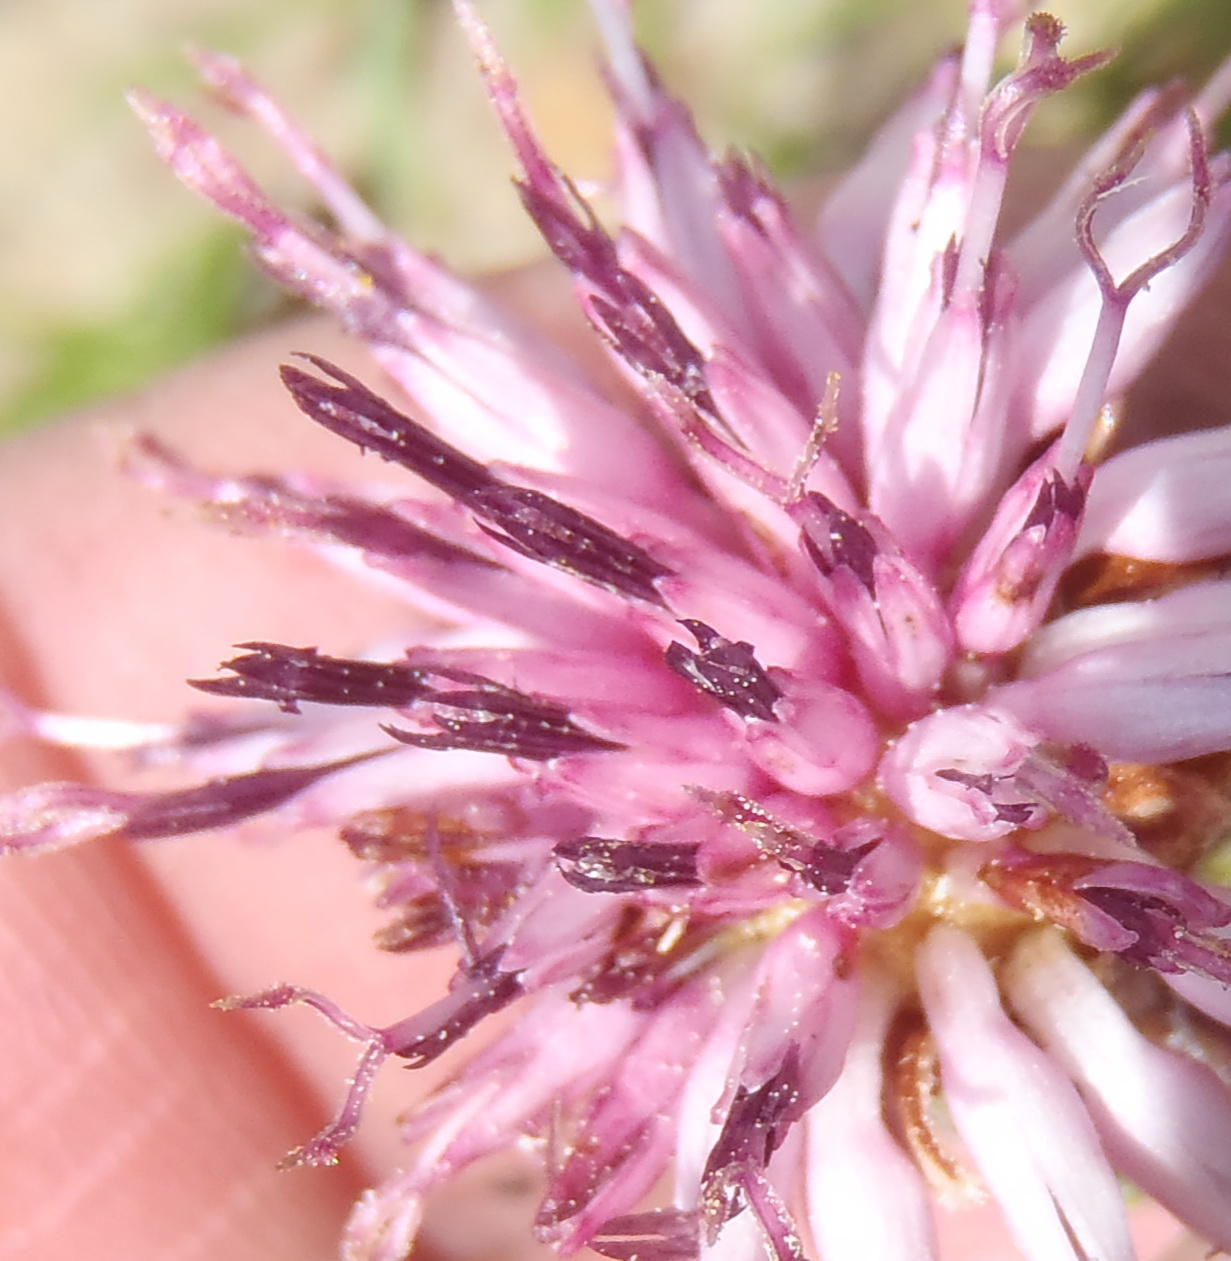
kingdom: Plantae
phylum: Tracheophyta
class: Magnoliopsida
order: Asterales
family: Asteraceae
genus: Pteronia
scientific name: Pteronia hirsuta
